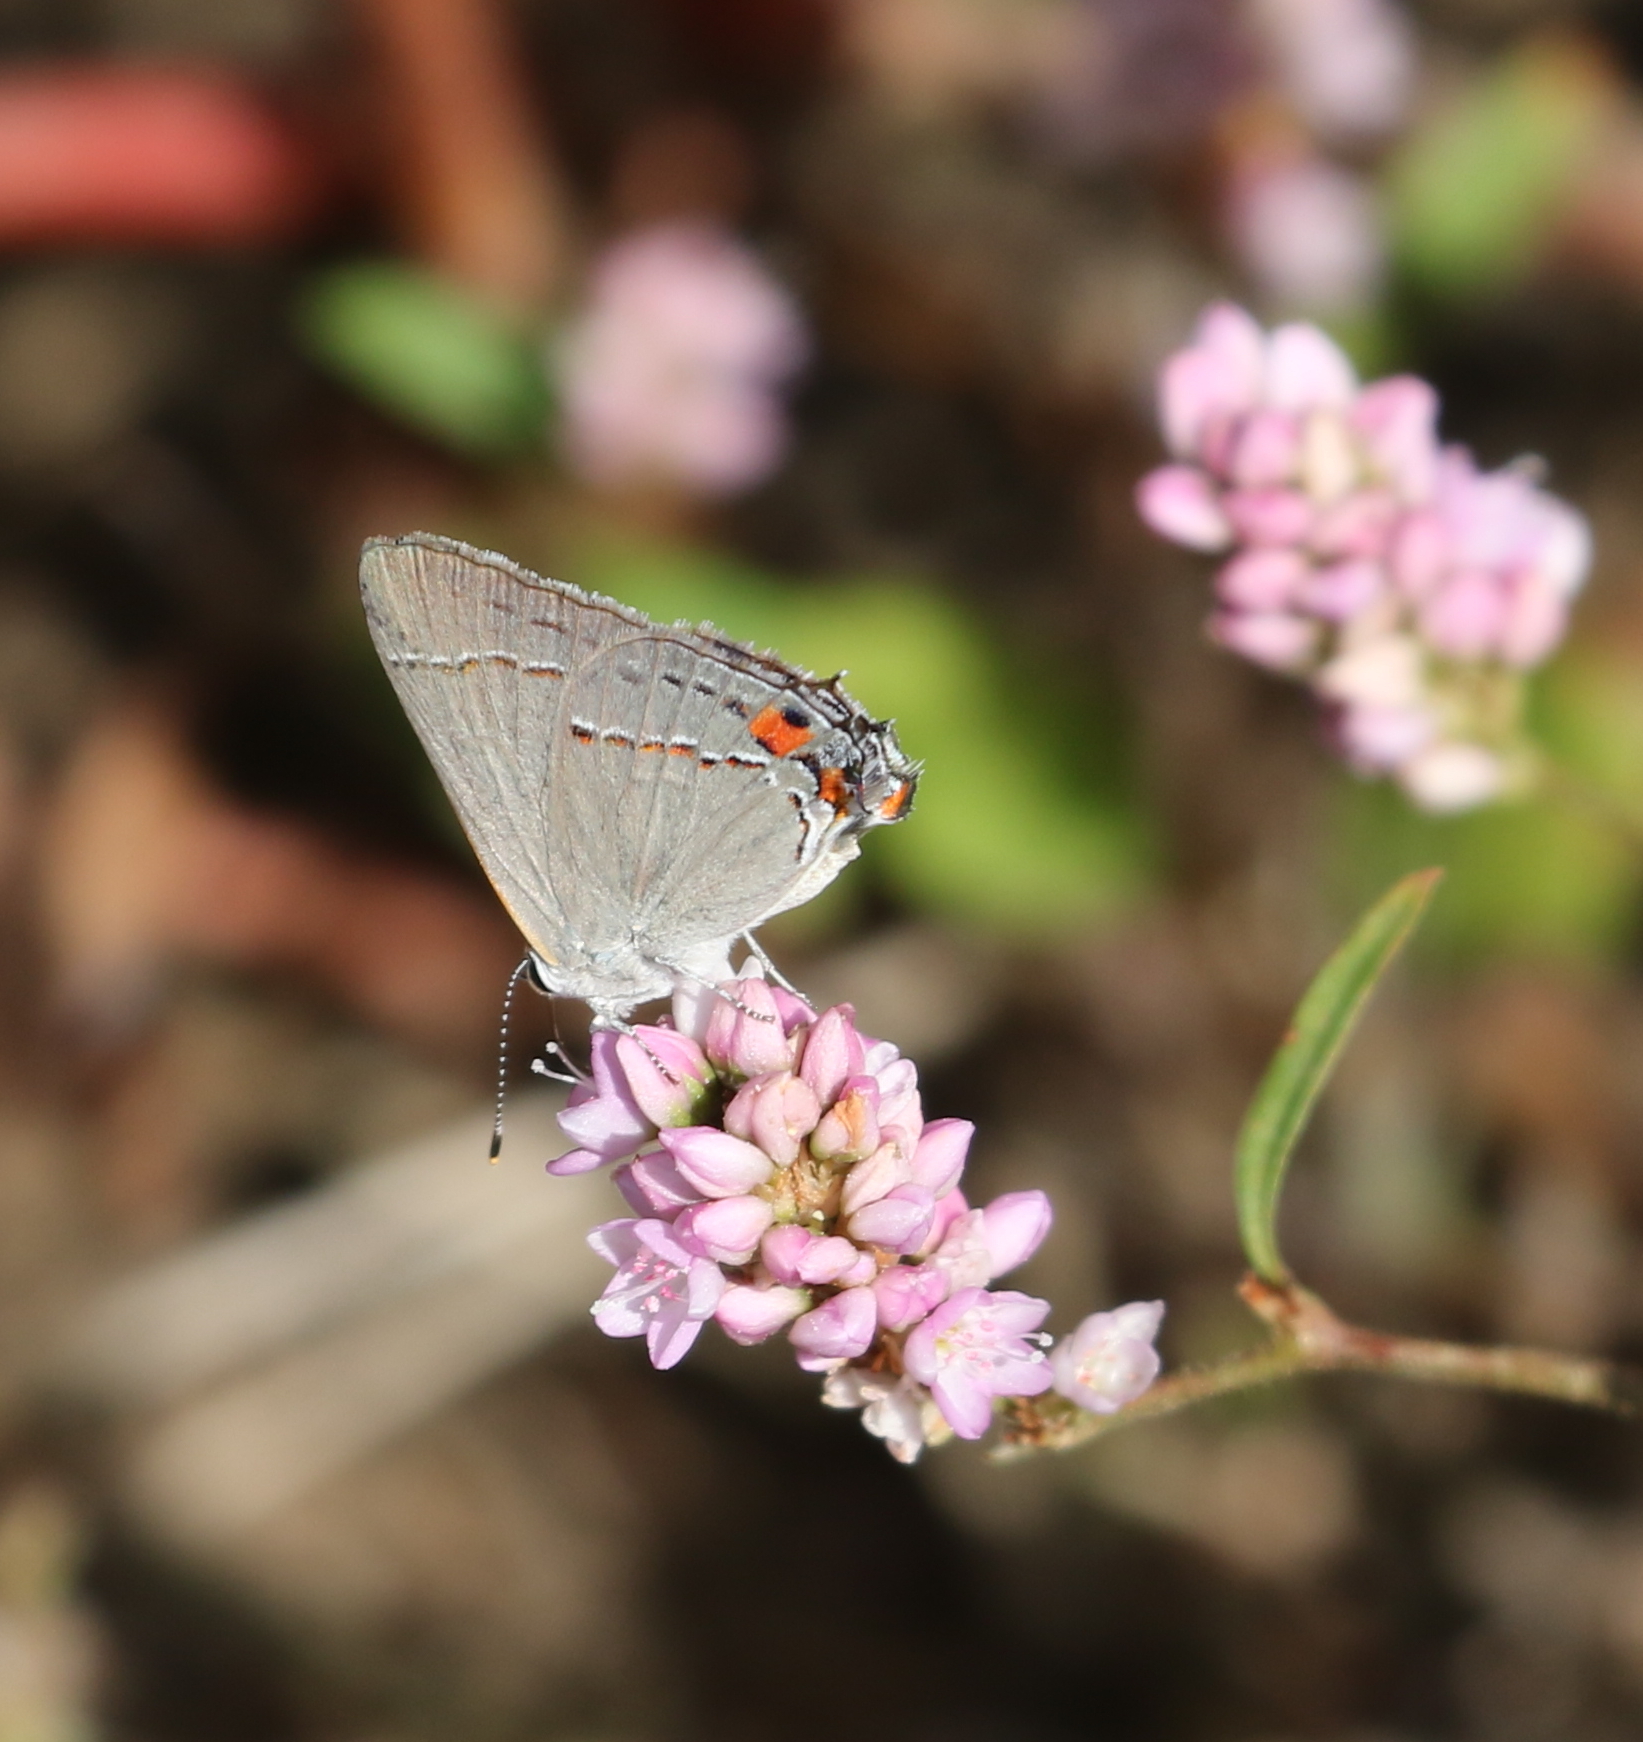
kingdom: Animalia
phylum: Arthropoda
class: Insecta
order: Lepidoptera
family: Lycaenidae
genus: Strymon
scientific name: Strymon melinus
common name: Gray hairstreak
